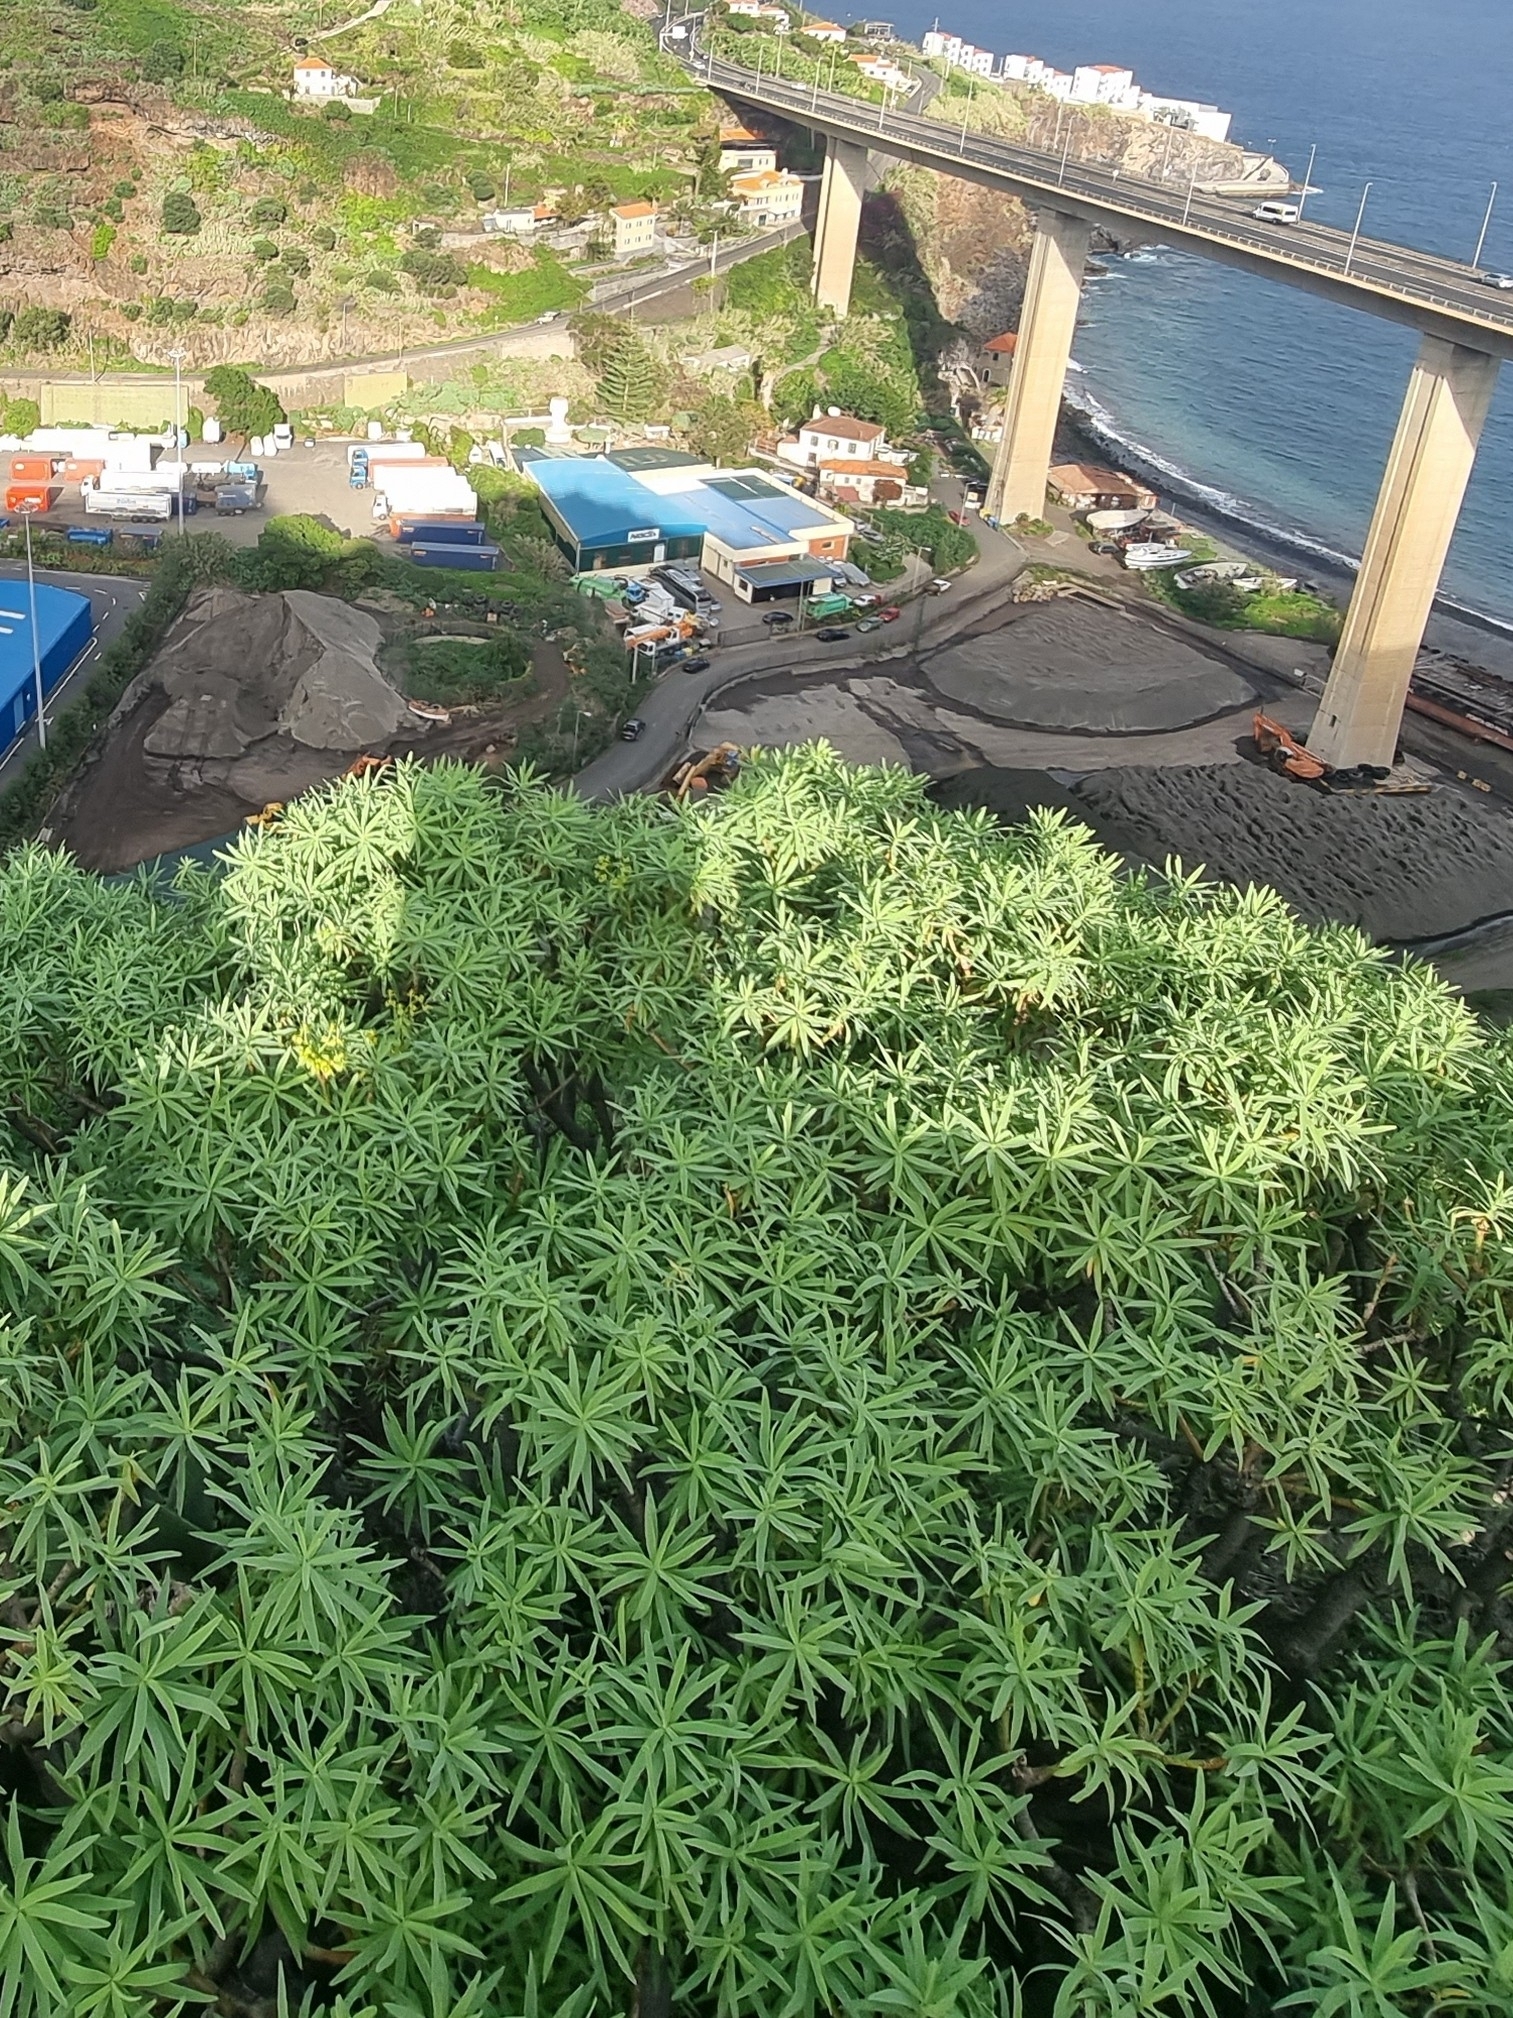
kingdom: Plantae
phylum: Tracheophyta
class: Magnoliopsida
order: Malpighiales
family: Euphorbiaceae
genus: Euphorbia
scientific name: Euphorbia piscatoria
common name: Fish-stunning spurge
